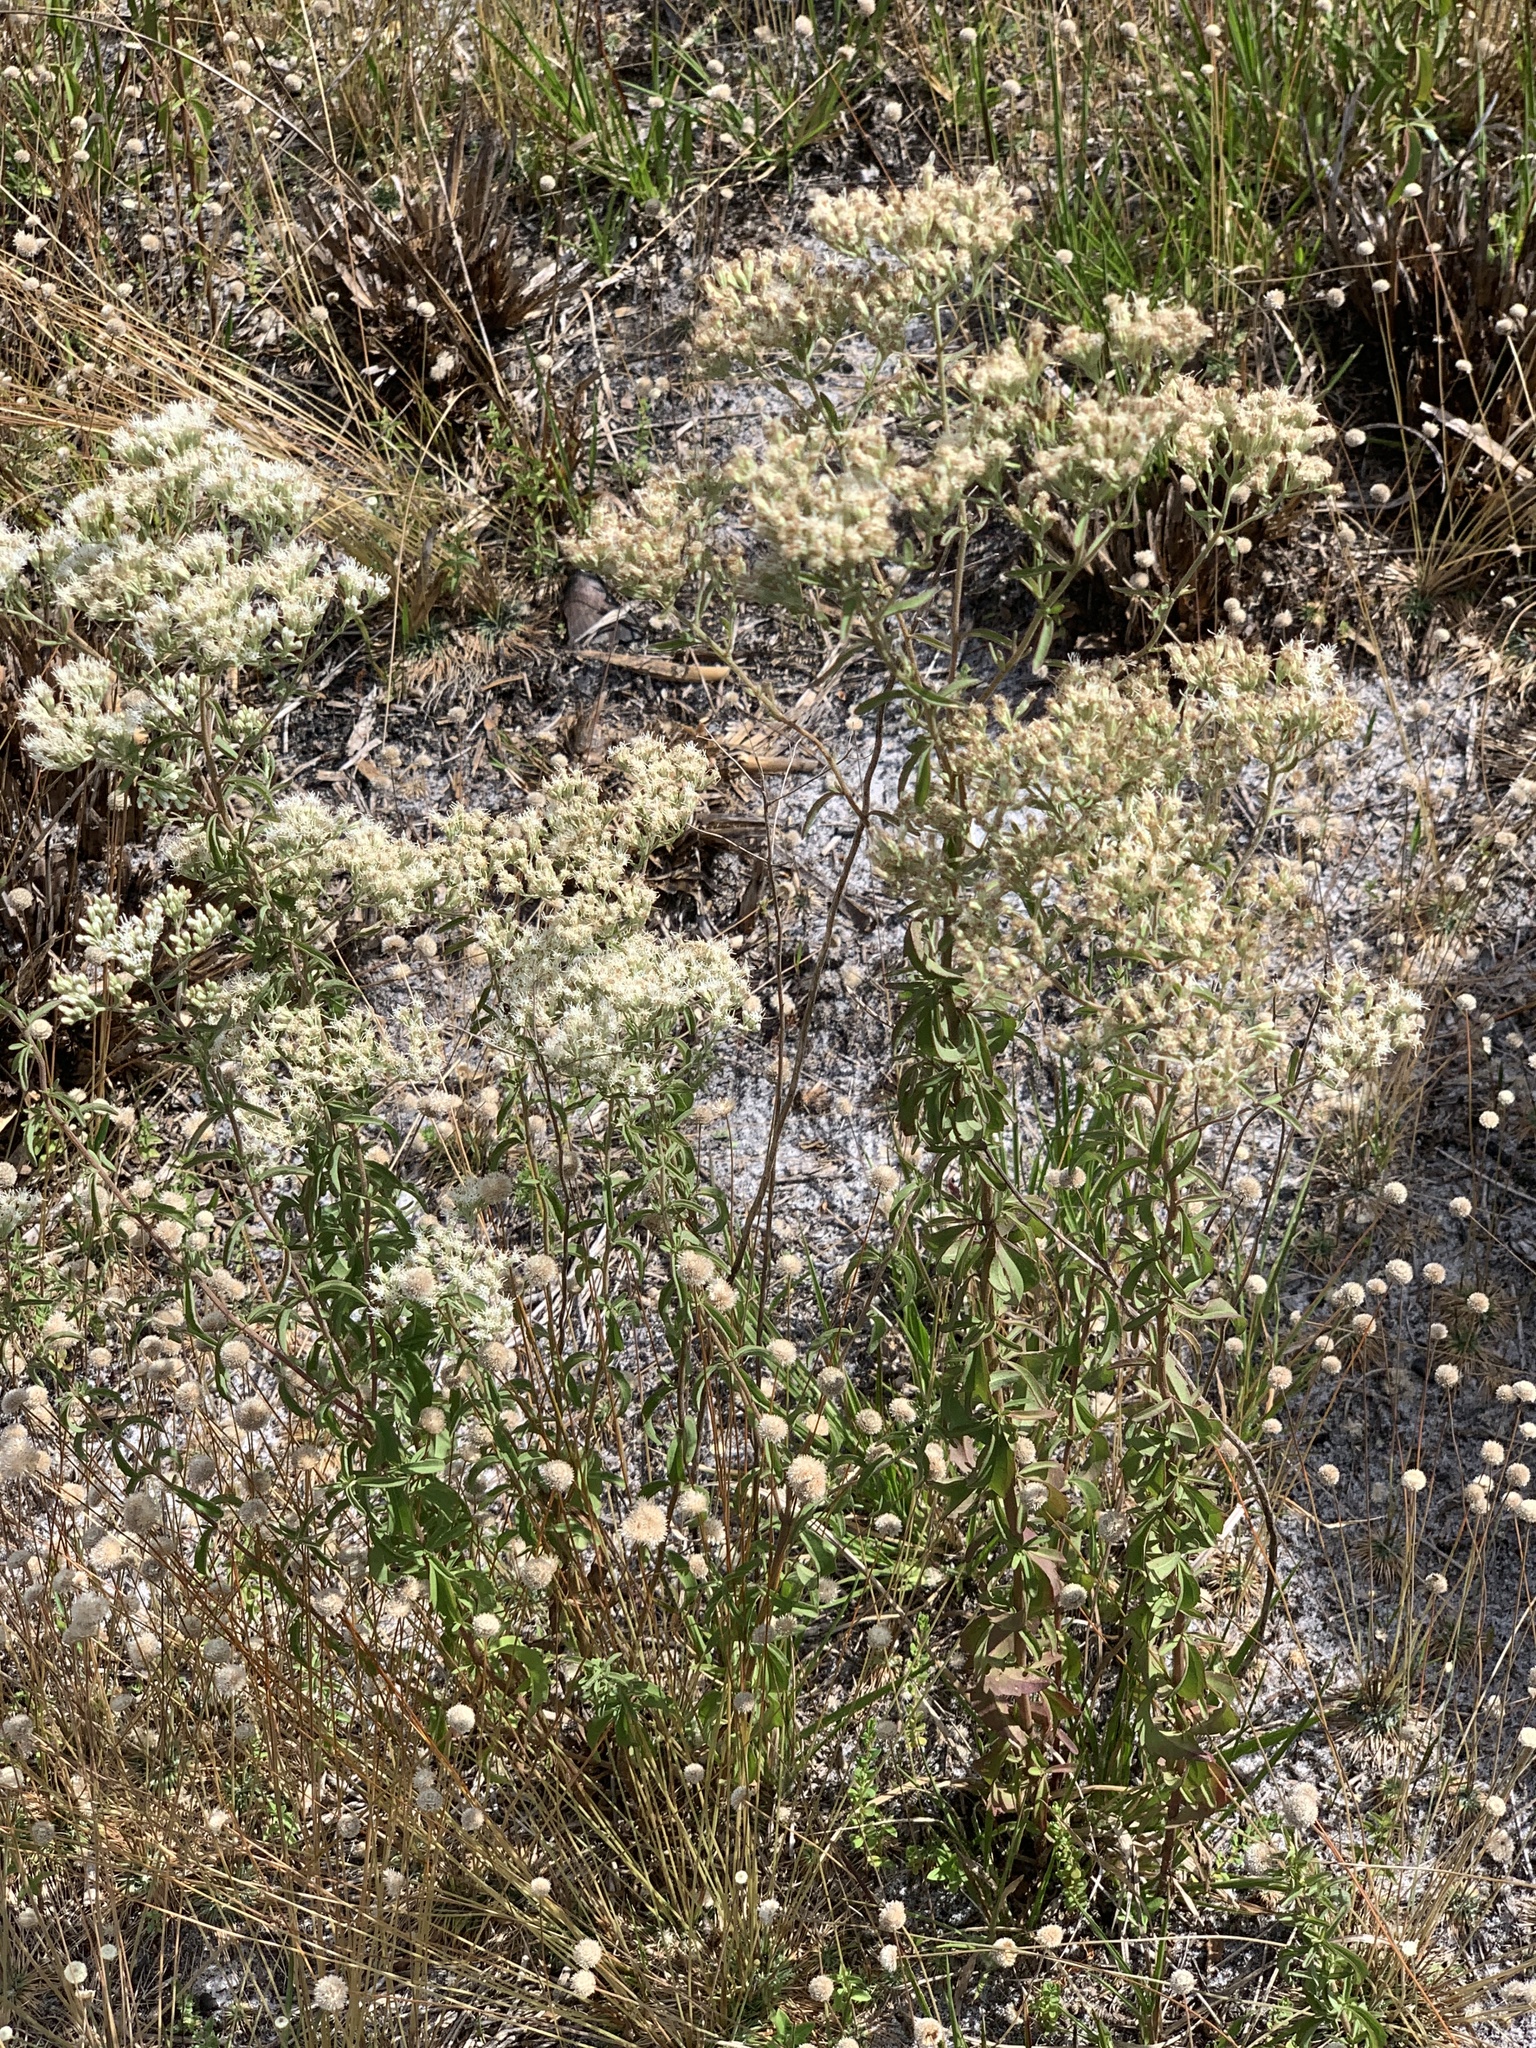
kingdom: Plantae
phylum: Tracheophyta
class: Magnoliopsida
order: Asterales
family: Asteraceae
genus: Eupatorium
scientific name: Eupatorium mohrii
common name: Mohr's thoroughwort
